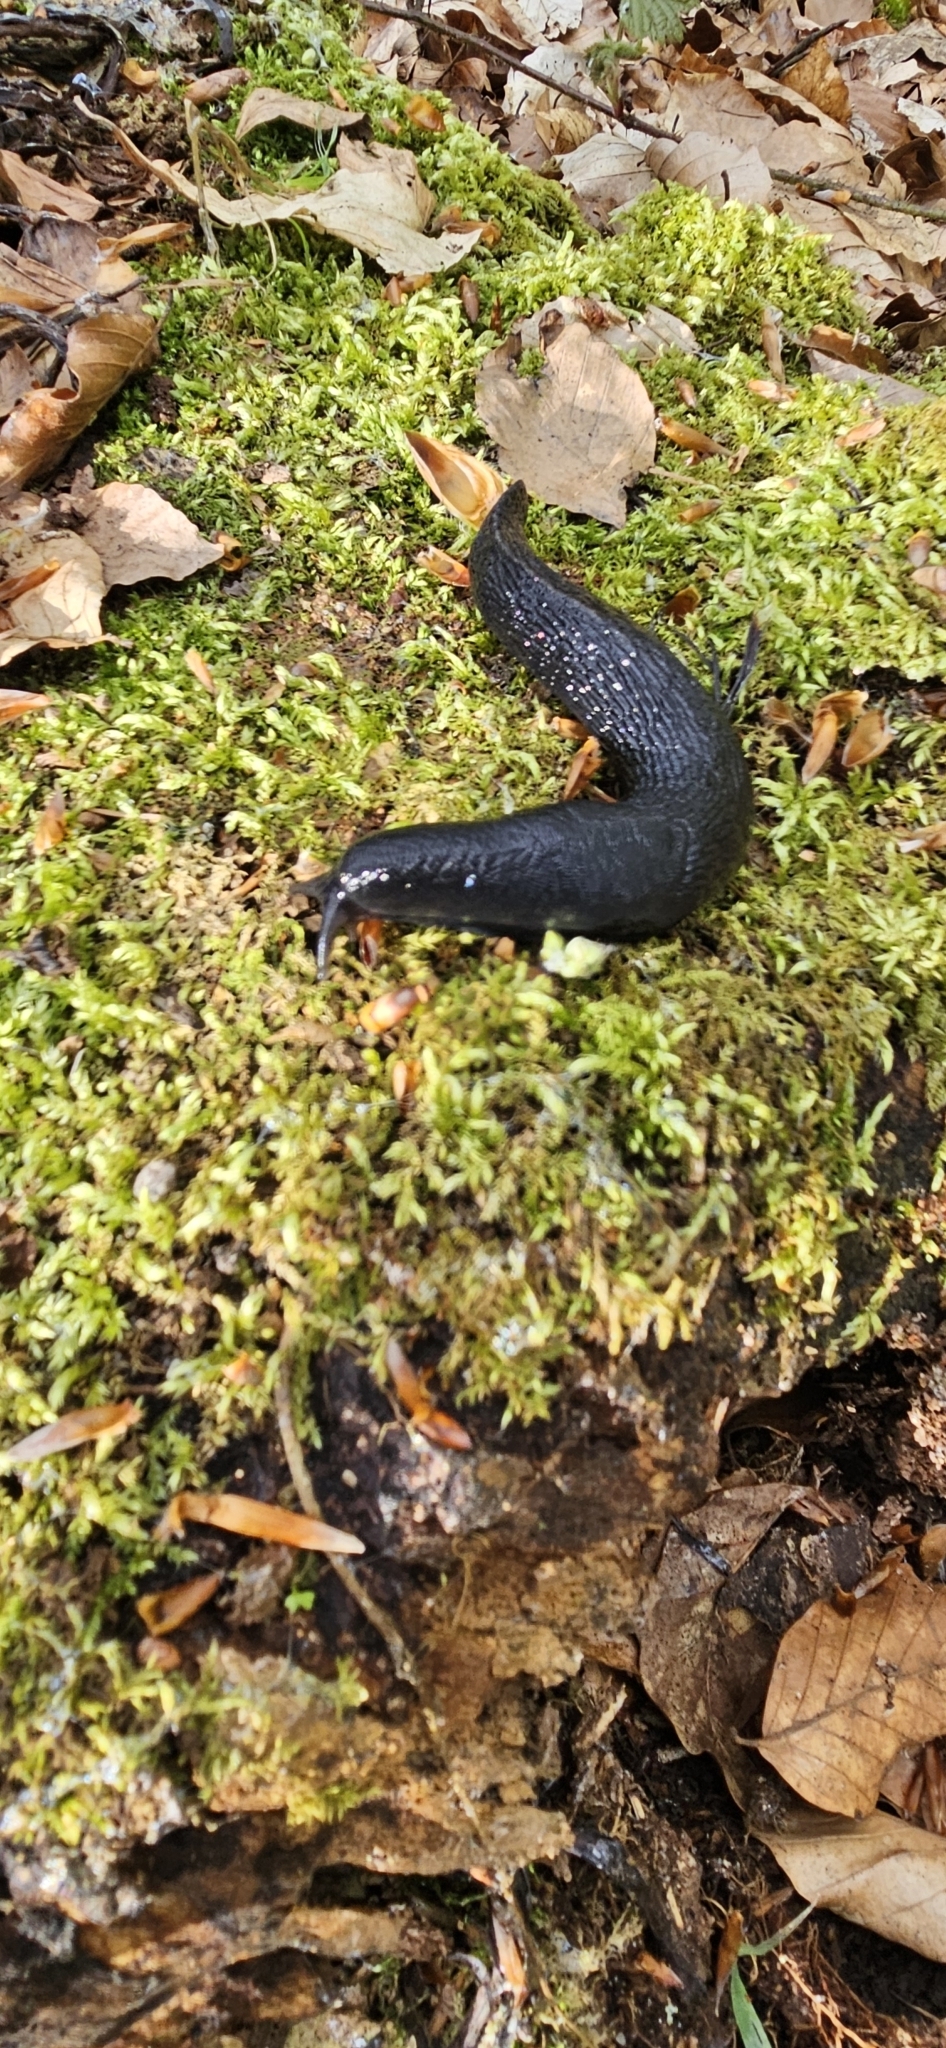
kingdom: Animalia
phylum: Mollusca
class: Gastropoda
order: Stylommatophora
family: Limacidae
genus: Limax
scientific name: Limax cinereoniger
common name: Ash-black slug
